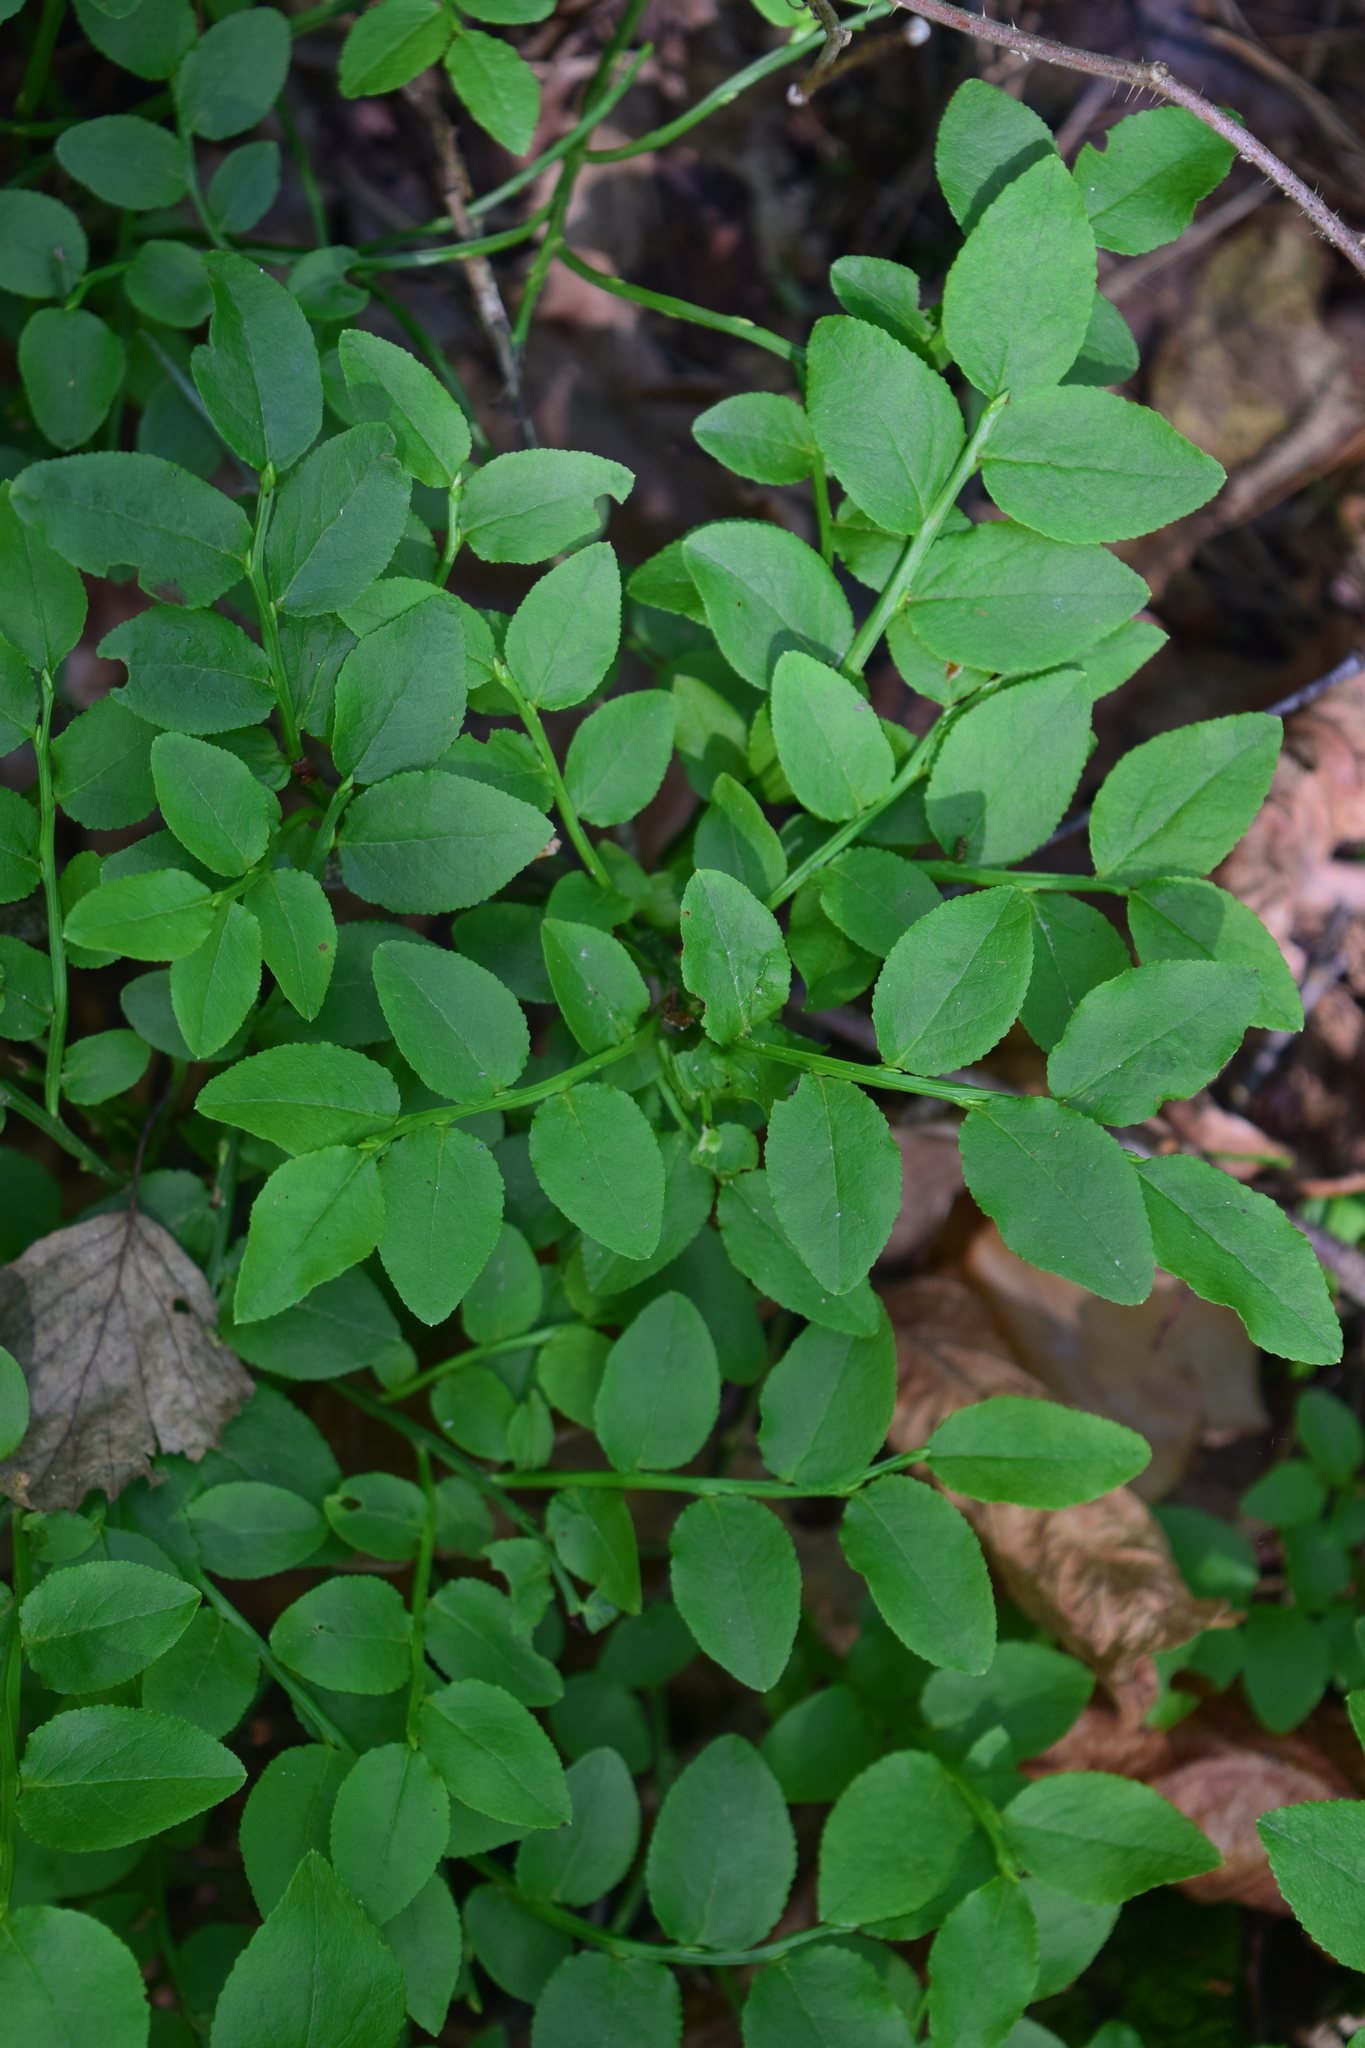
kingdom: Plantae
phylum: Tracheophyta
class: Magnoliopsida
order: Ericales
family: Ericaceae
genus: Vaccinium
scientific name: Vaccinium myrtillus
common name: Bilberry
